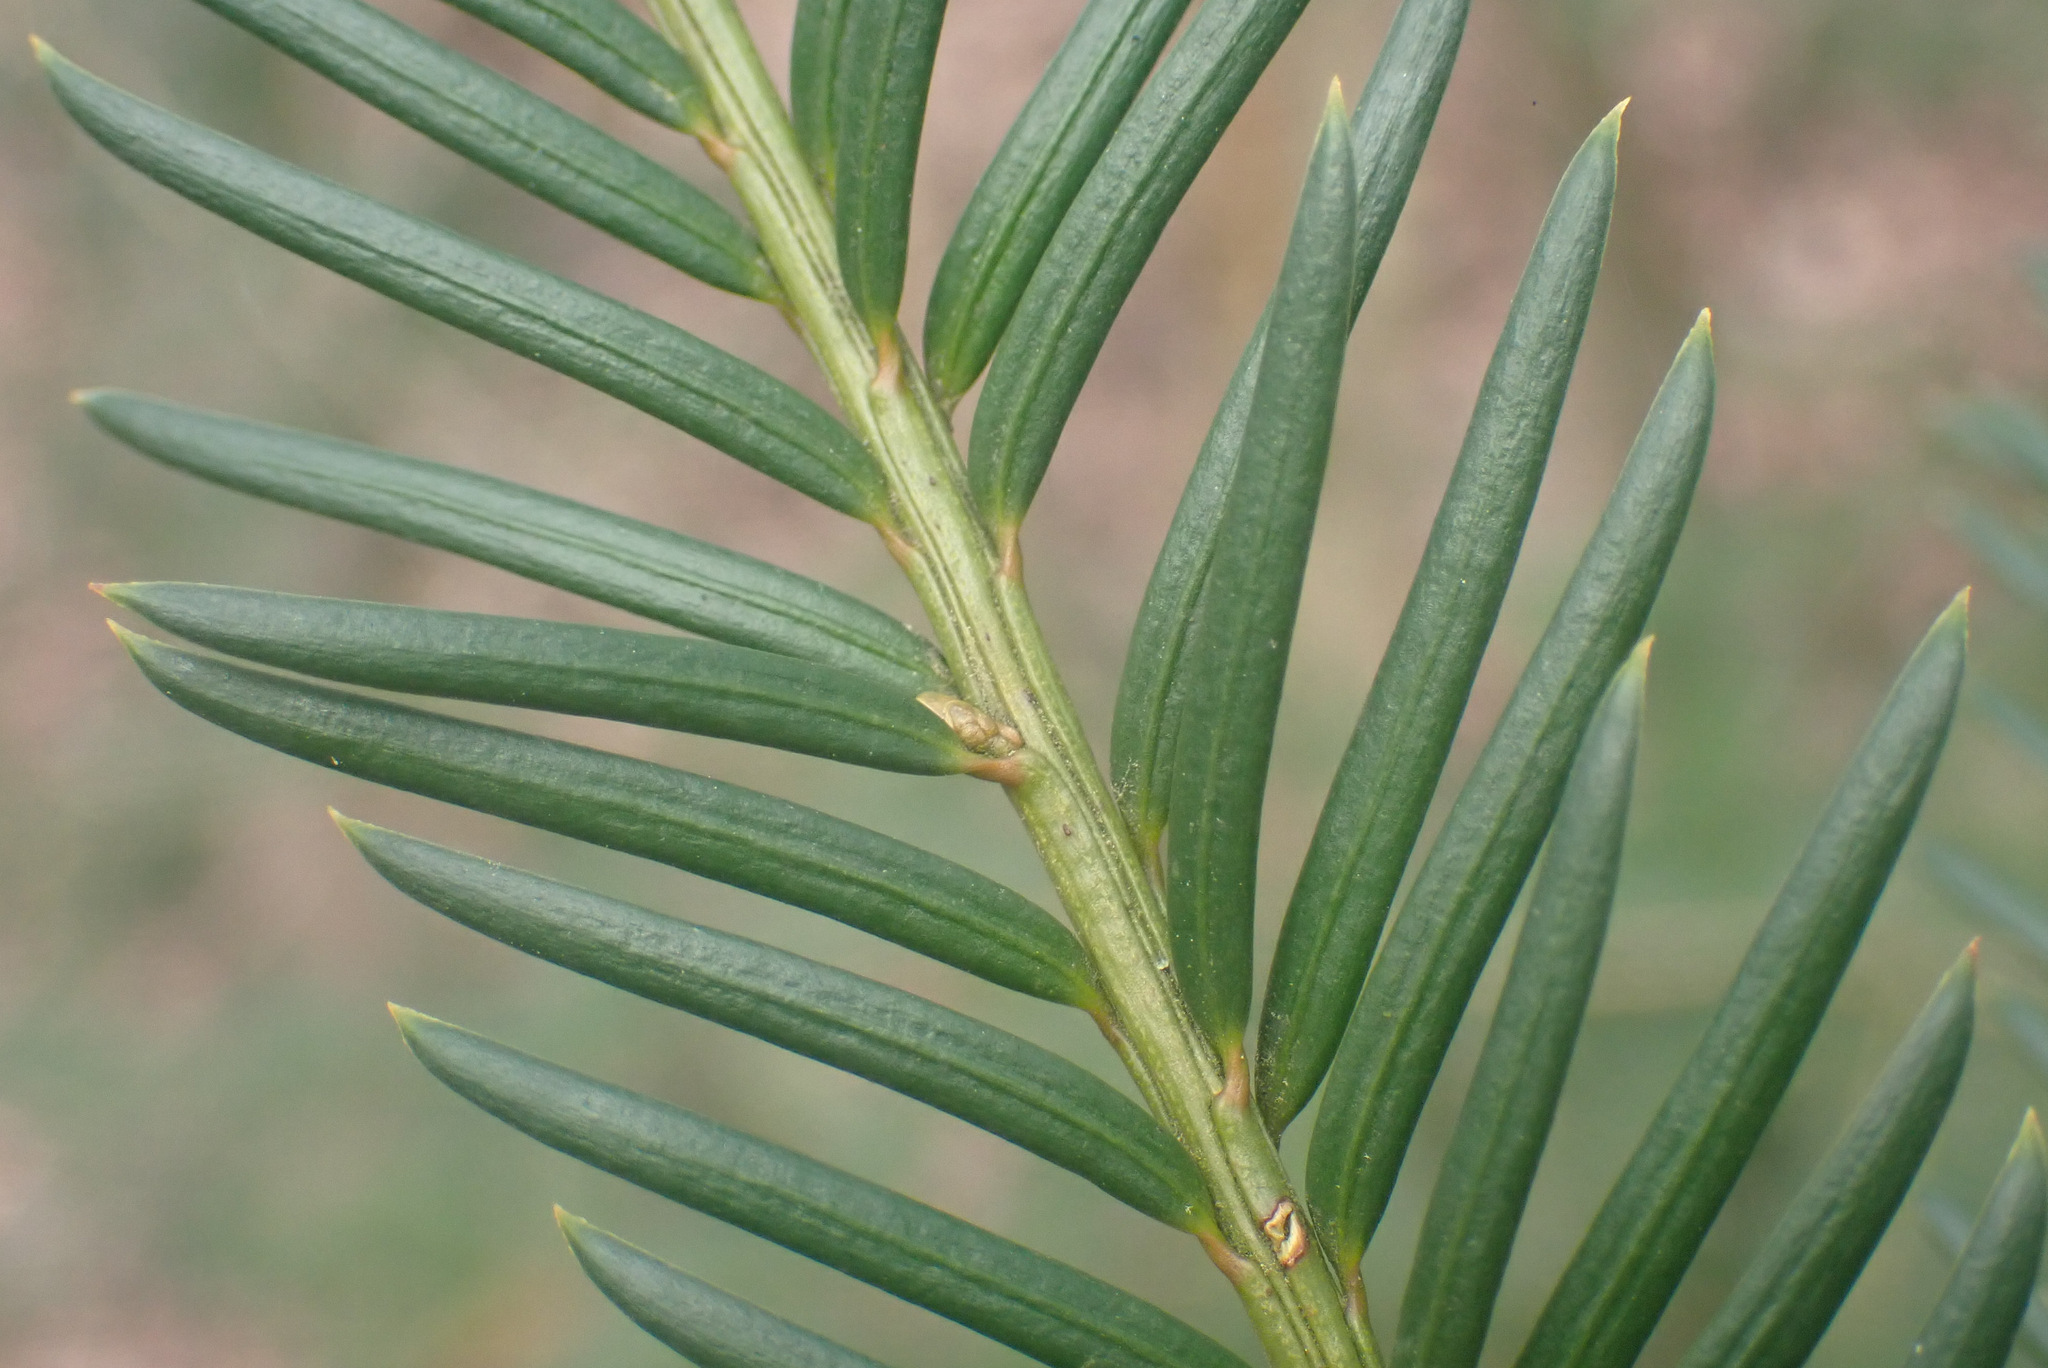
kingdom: Plantae
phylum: Tracheophyta
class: Pinopsida
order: Pinales
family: Taxaceae
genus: Taxus
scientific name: Taxus baccata
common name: Yew
